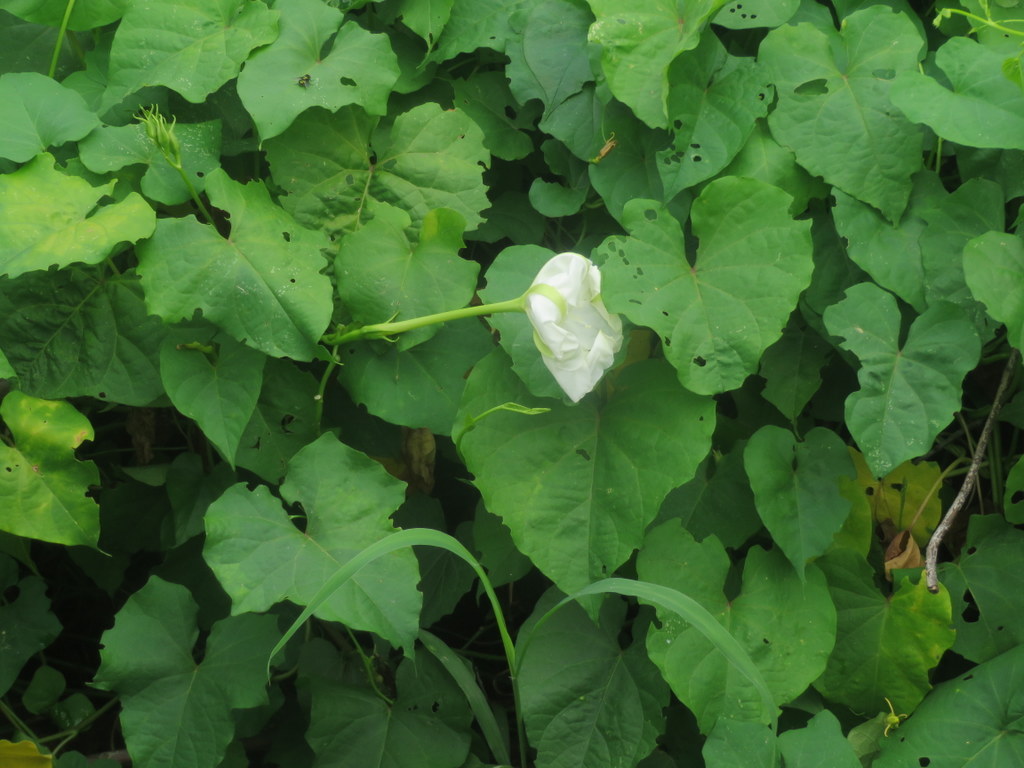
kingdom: Plantae
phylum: Tracheophyta
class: Magnoliopsida
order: Solanales
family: Convolvulaceae
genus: Ipomoea
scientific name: Ipomoea alba
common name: Moonflower
